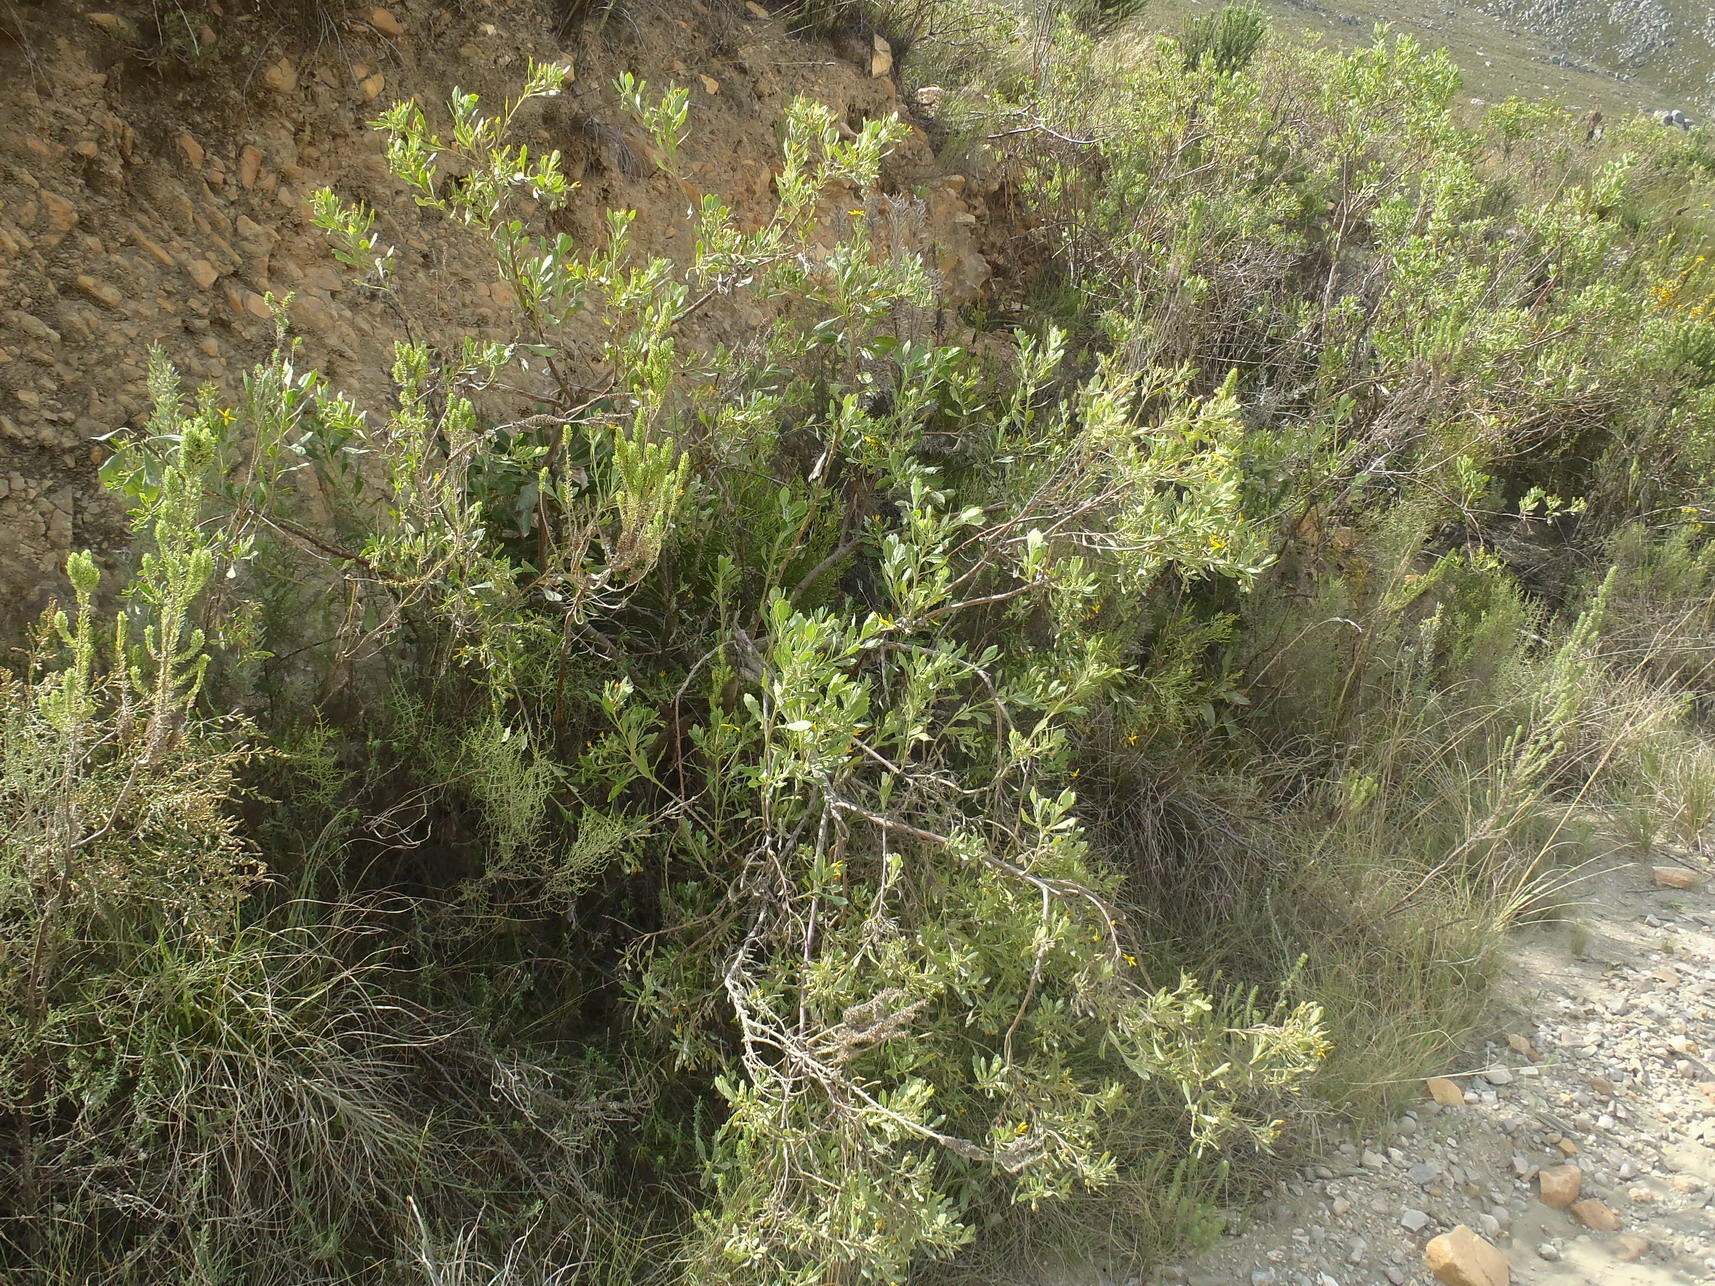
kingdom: Plantae
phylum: Tracheophyta
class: Magnoliopsida
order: Asterales
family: Asteraceae
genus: Osteospermum
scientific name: Osteospermum moniliferum
